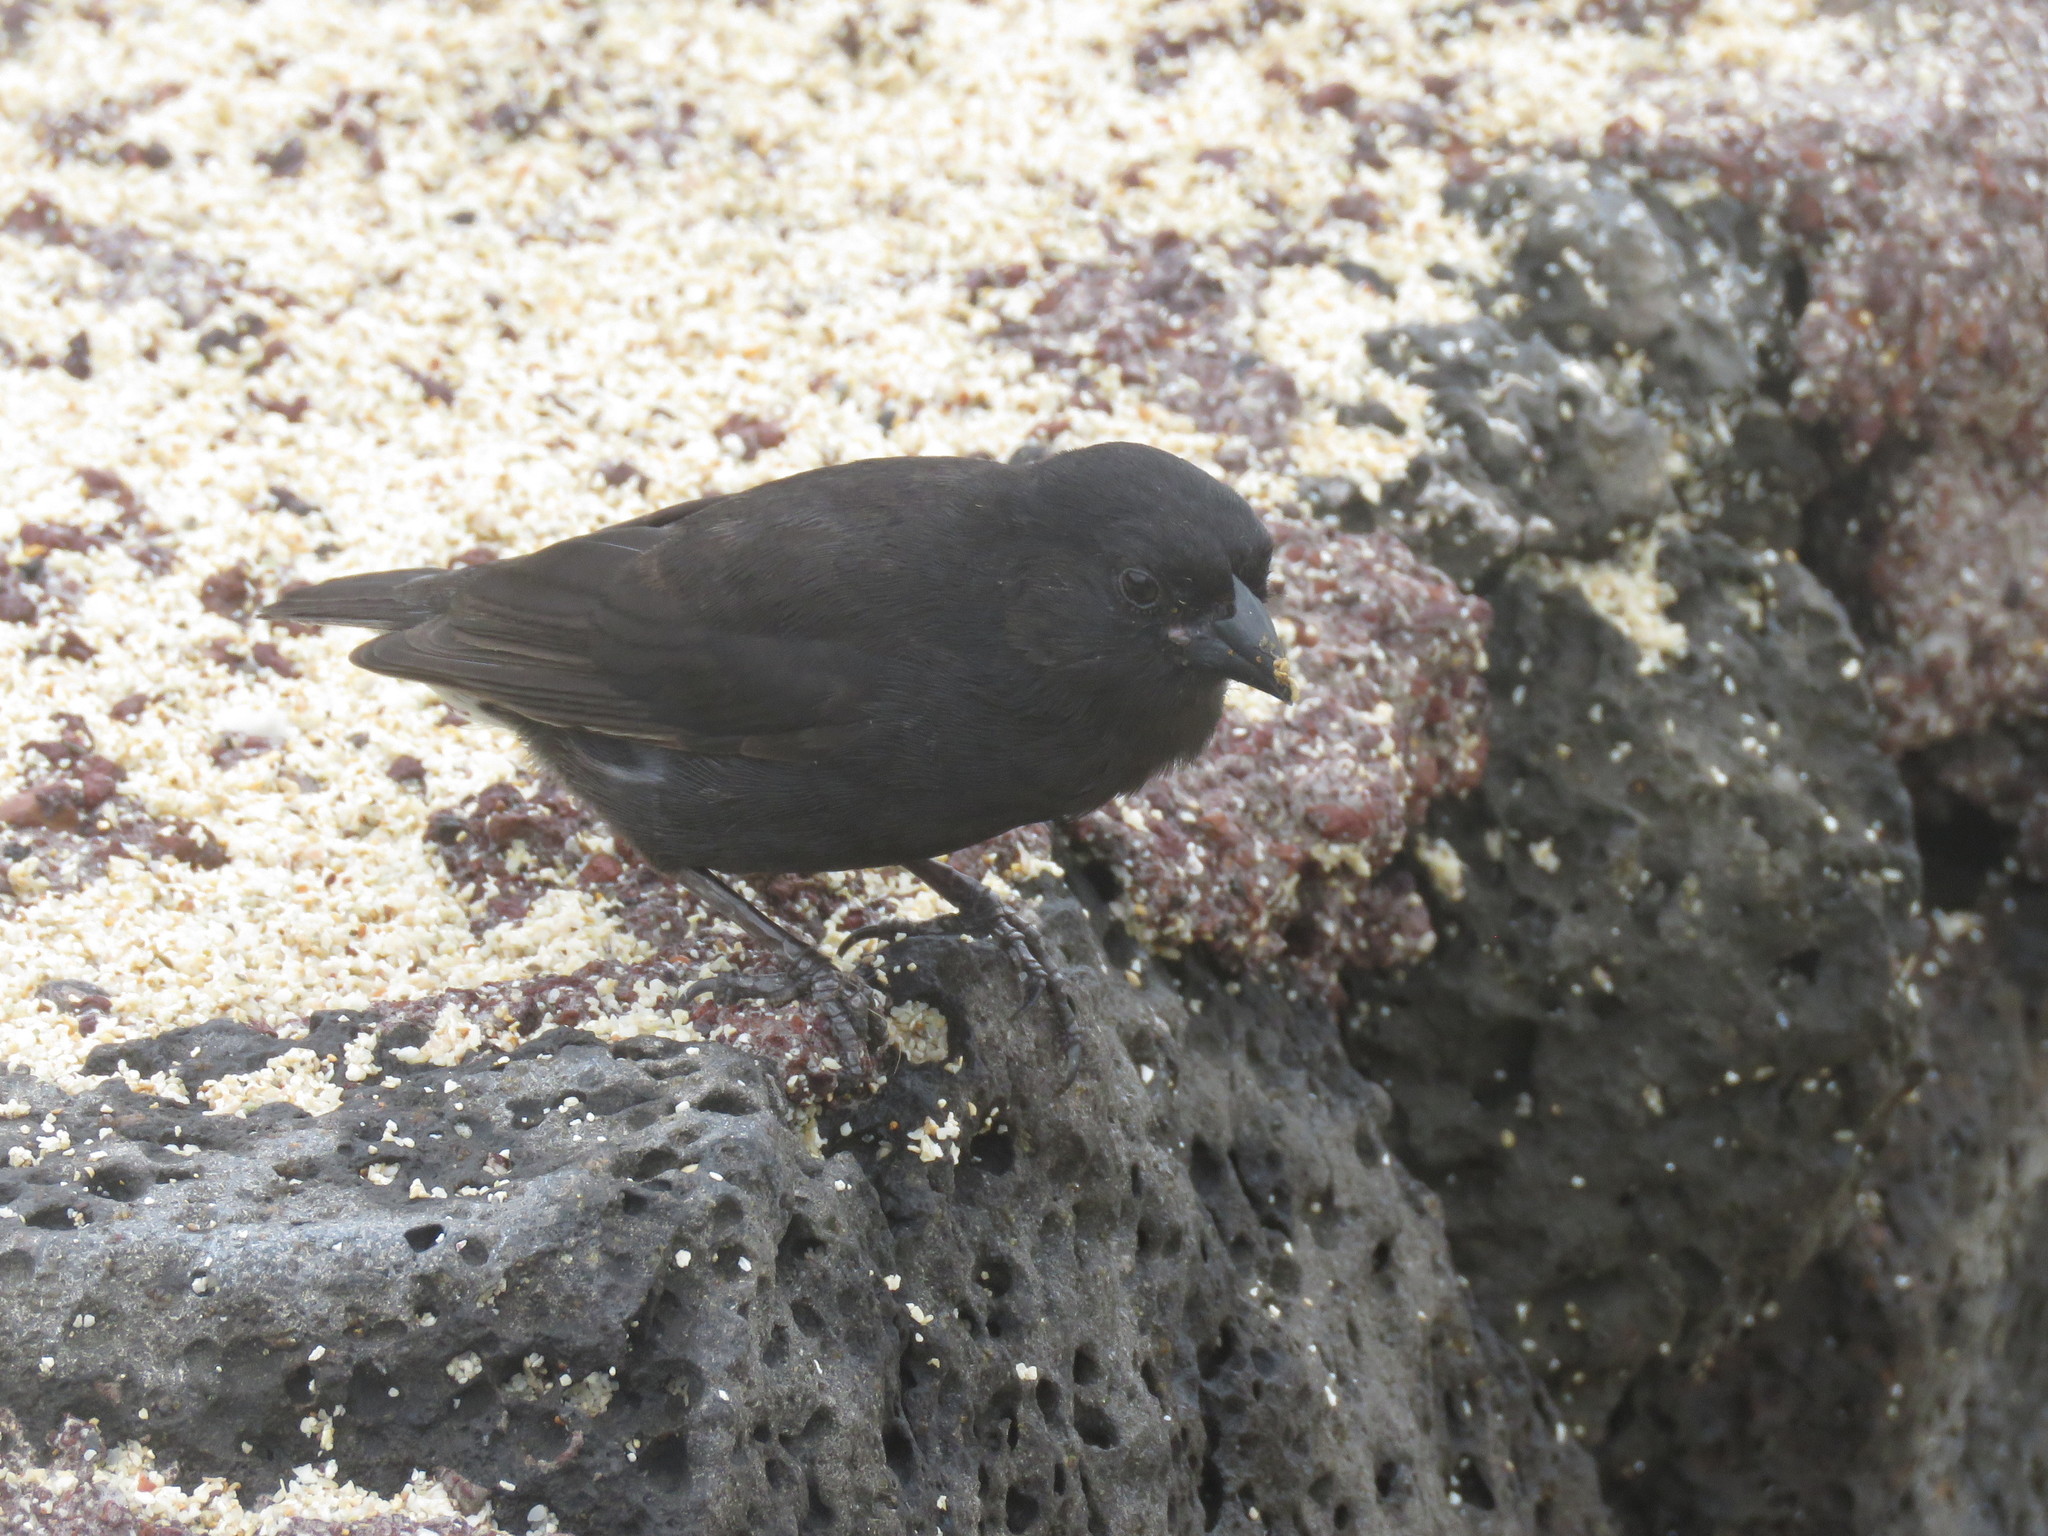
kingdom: Animalia
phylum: Chordata
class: Aves
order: Passeriformes
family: Thraupidae
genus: Geospiza
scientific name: Geospiza fuliginosa
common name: Small ground finch
